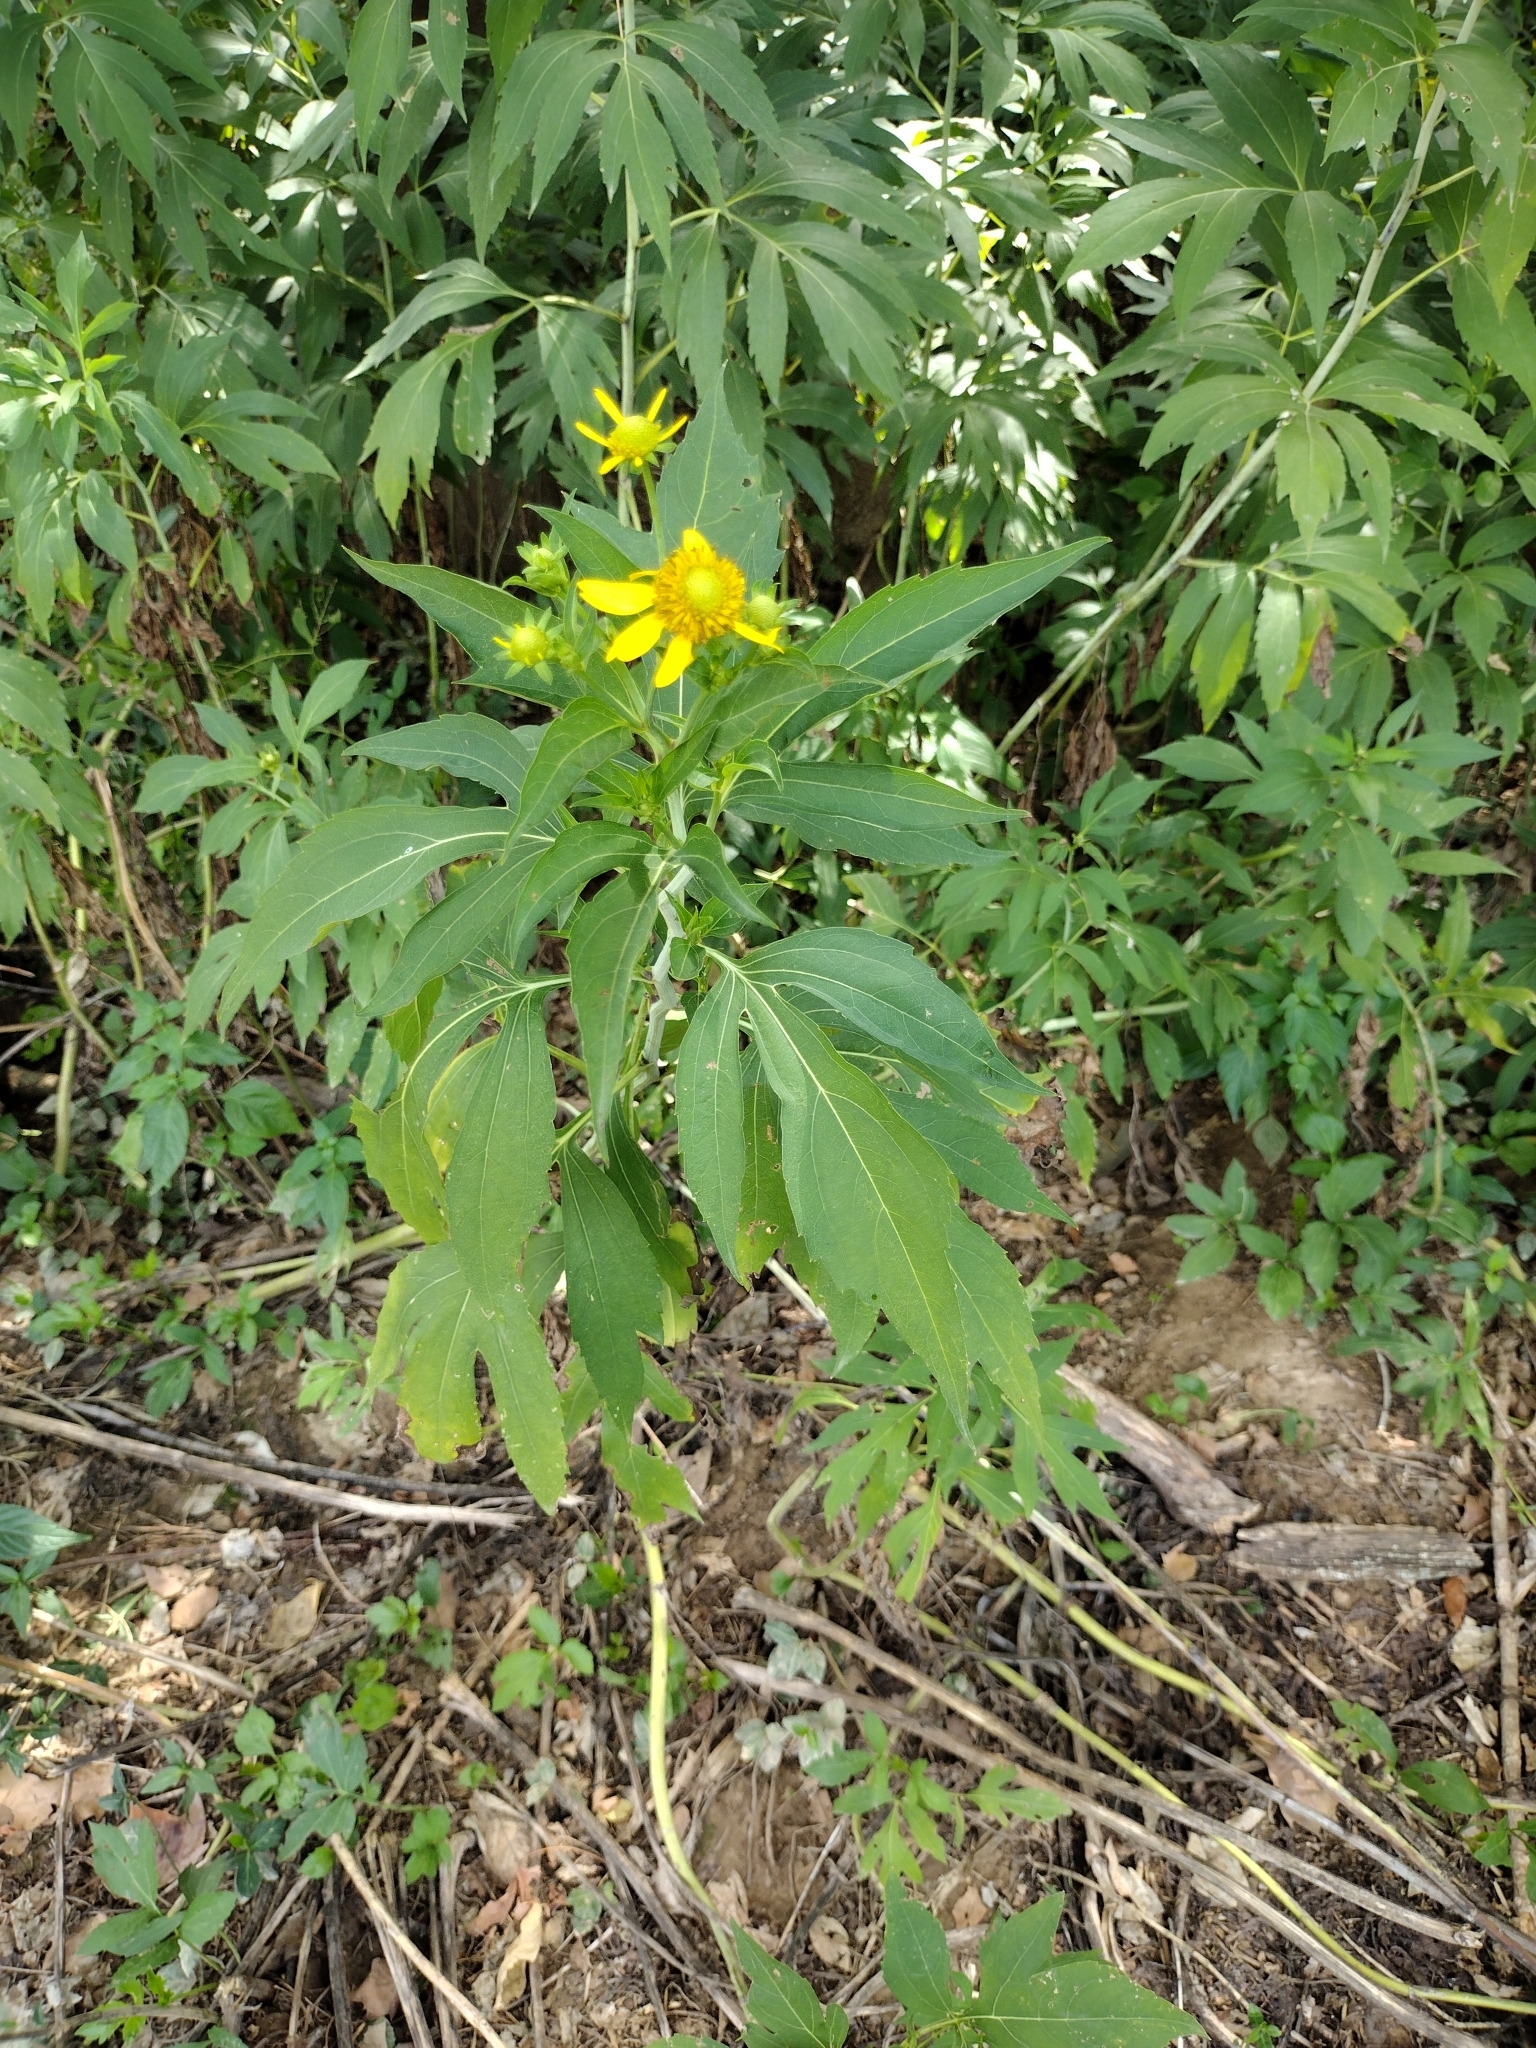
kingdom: Plantae
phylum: Tracheophyta
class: Magnoliopsida
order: Asterales
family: Asteraceae
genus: Rudbeckia
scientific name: Rudbeckia laciniata
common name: Coneflower
